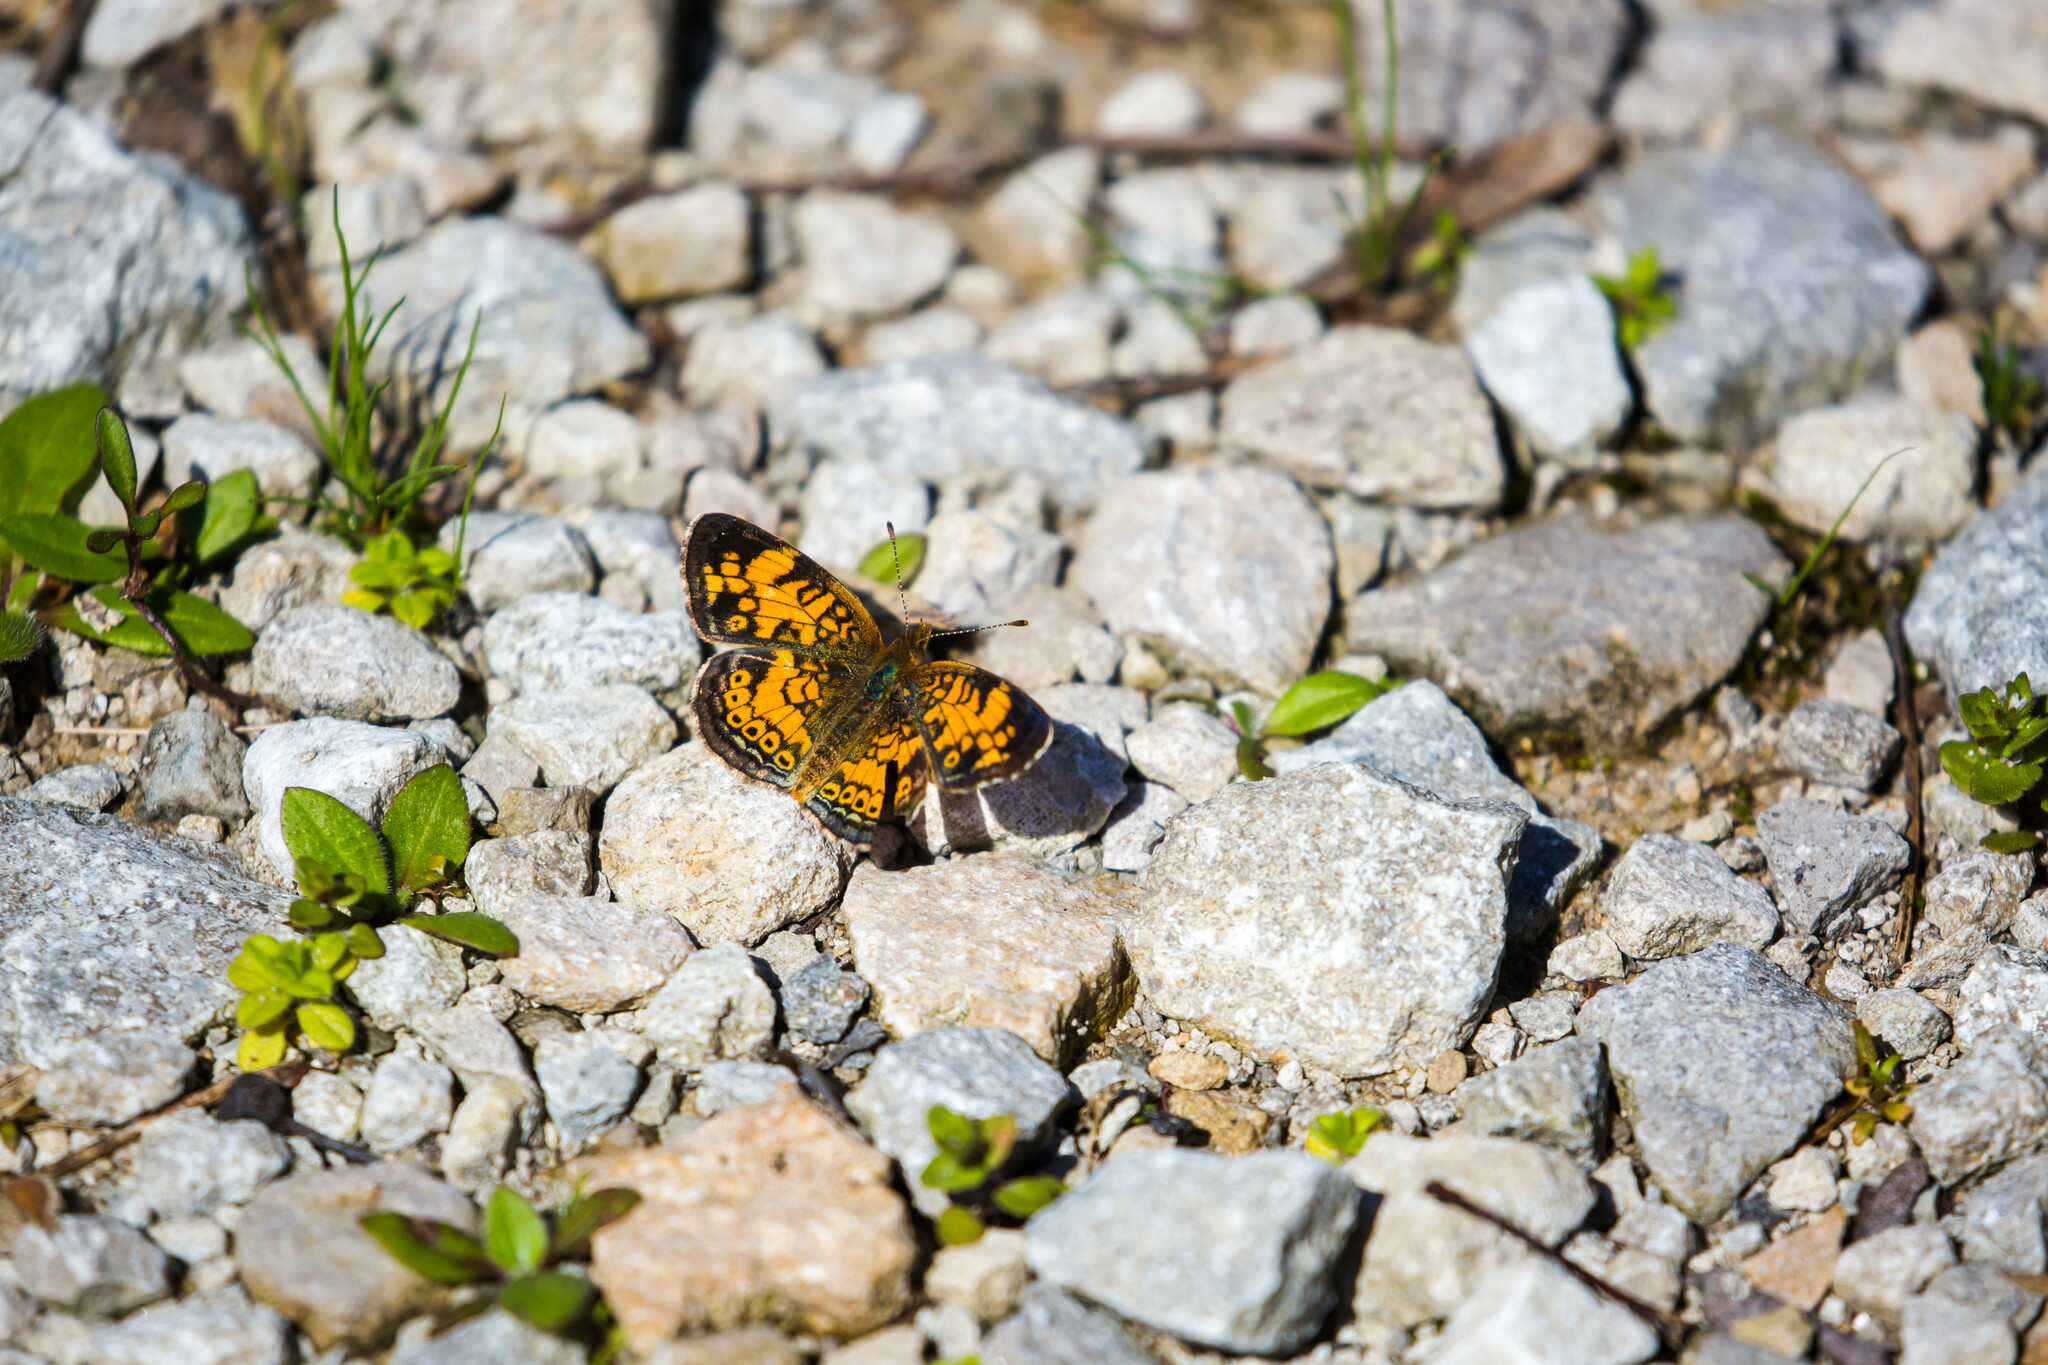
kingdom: Animalia
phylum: Arthropoda
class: Insecta
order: Lepidoptera
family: Nymphalidae
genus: Phyciodes
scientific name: Phyciodes tharos
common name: Pearl crescent
